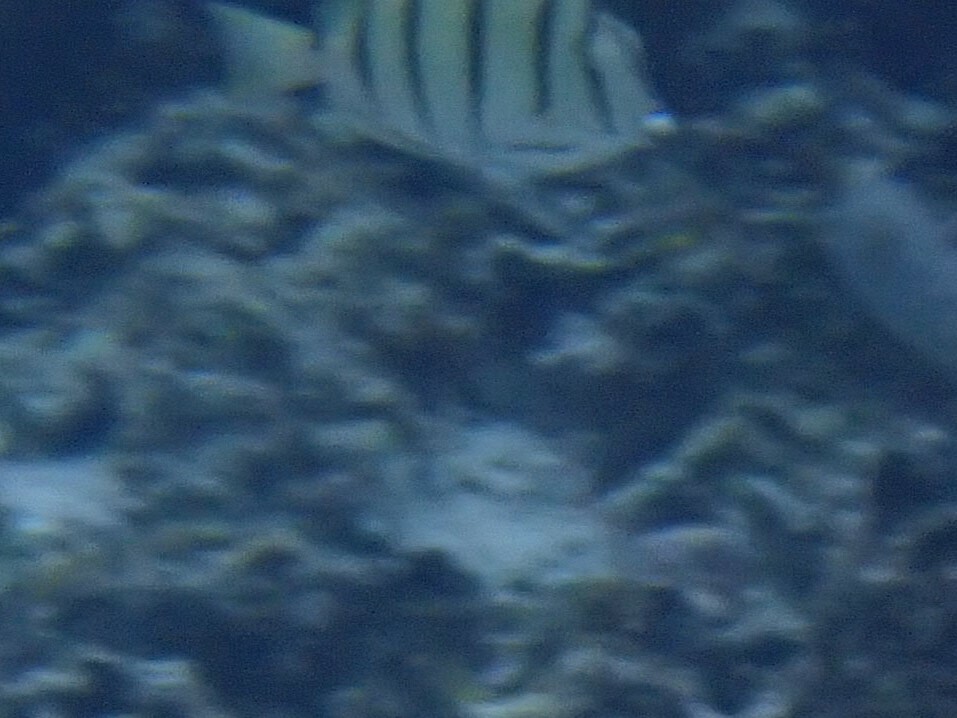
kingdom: Animalia
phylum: Chordata
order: Perciformes
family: Acanthuridae
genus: Acanthurus
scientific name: Acanthurus triostegus
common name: Convict surgeonfish
